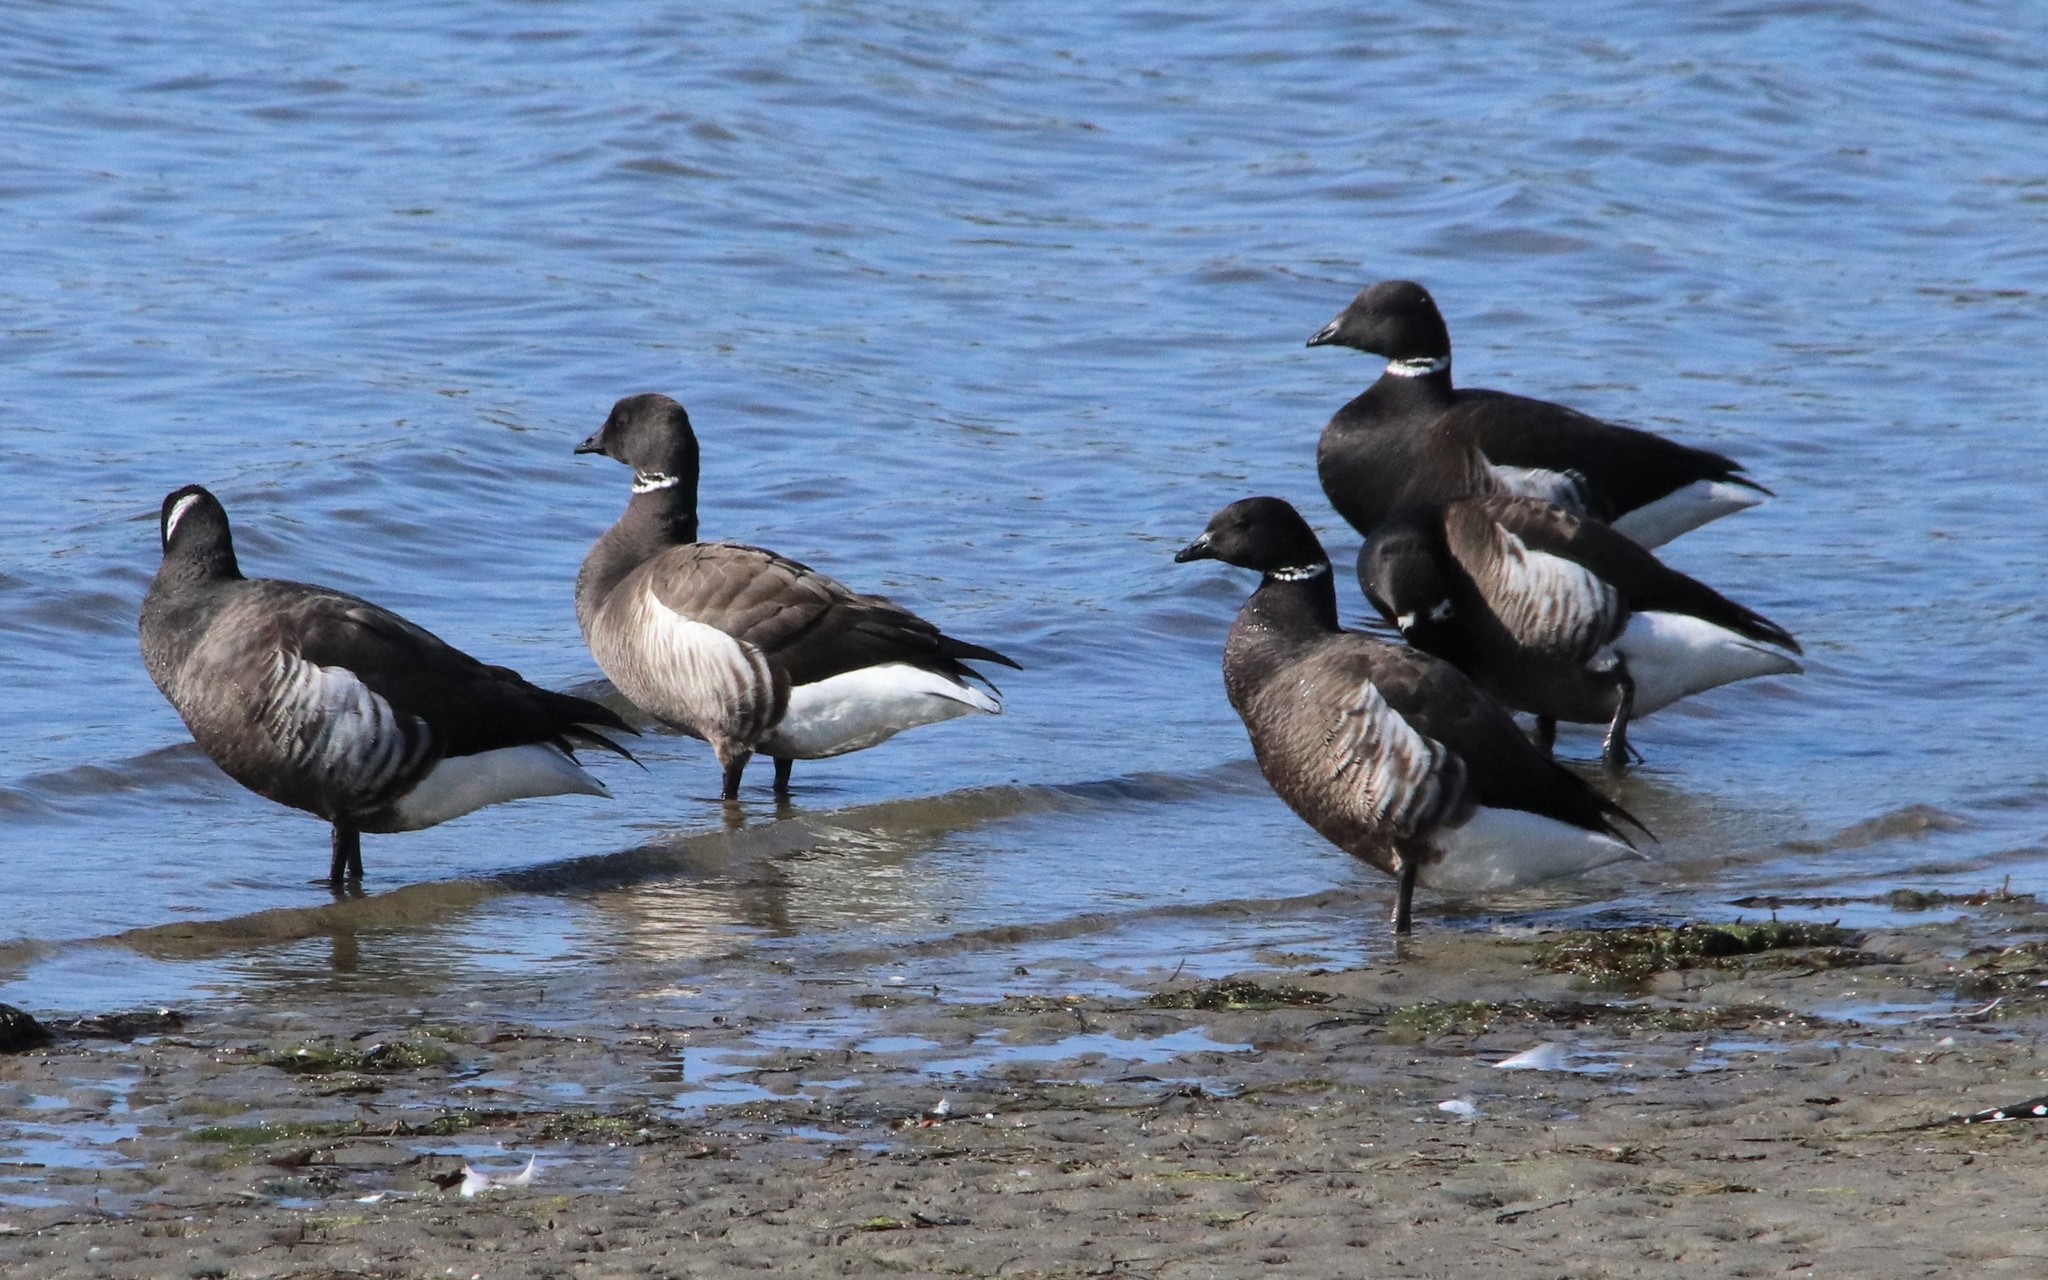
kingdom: Animalia
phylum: Chordata
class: Aves
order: Anseriformes
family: Anatidae
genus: Branta
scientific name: Branta bernicla
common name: Brant goose
